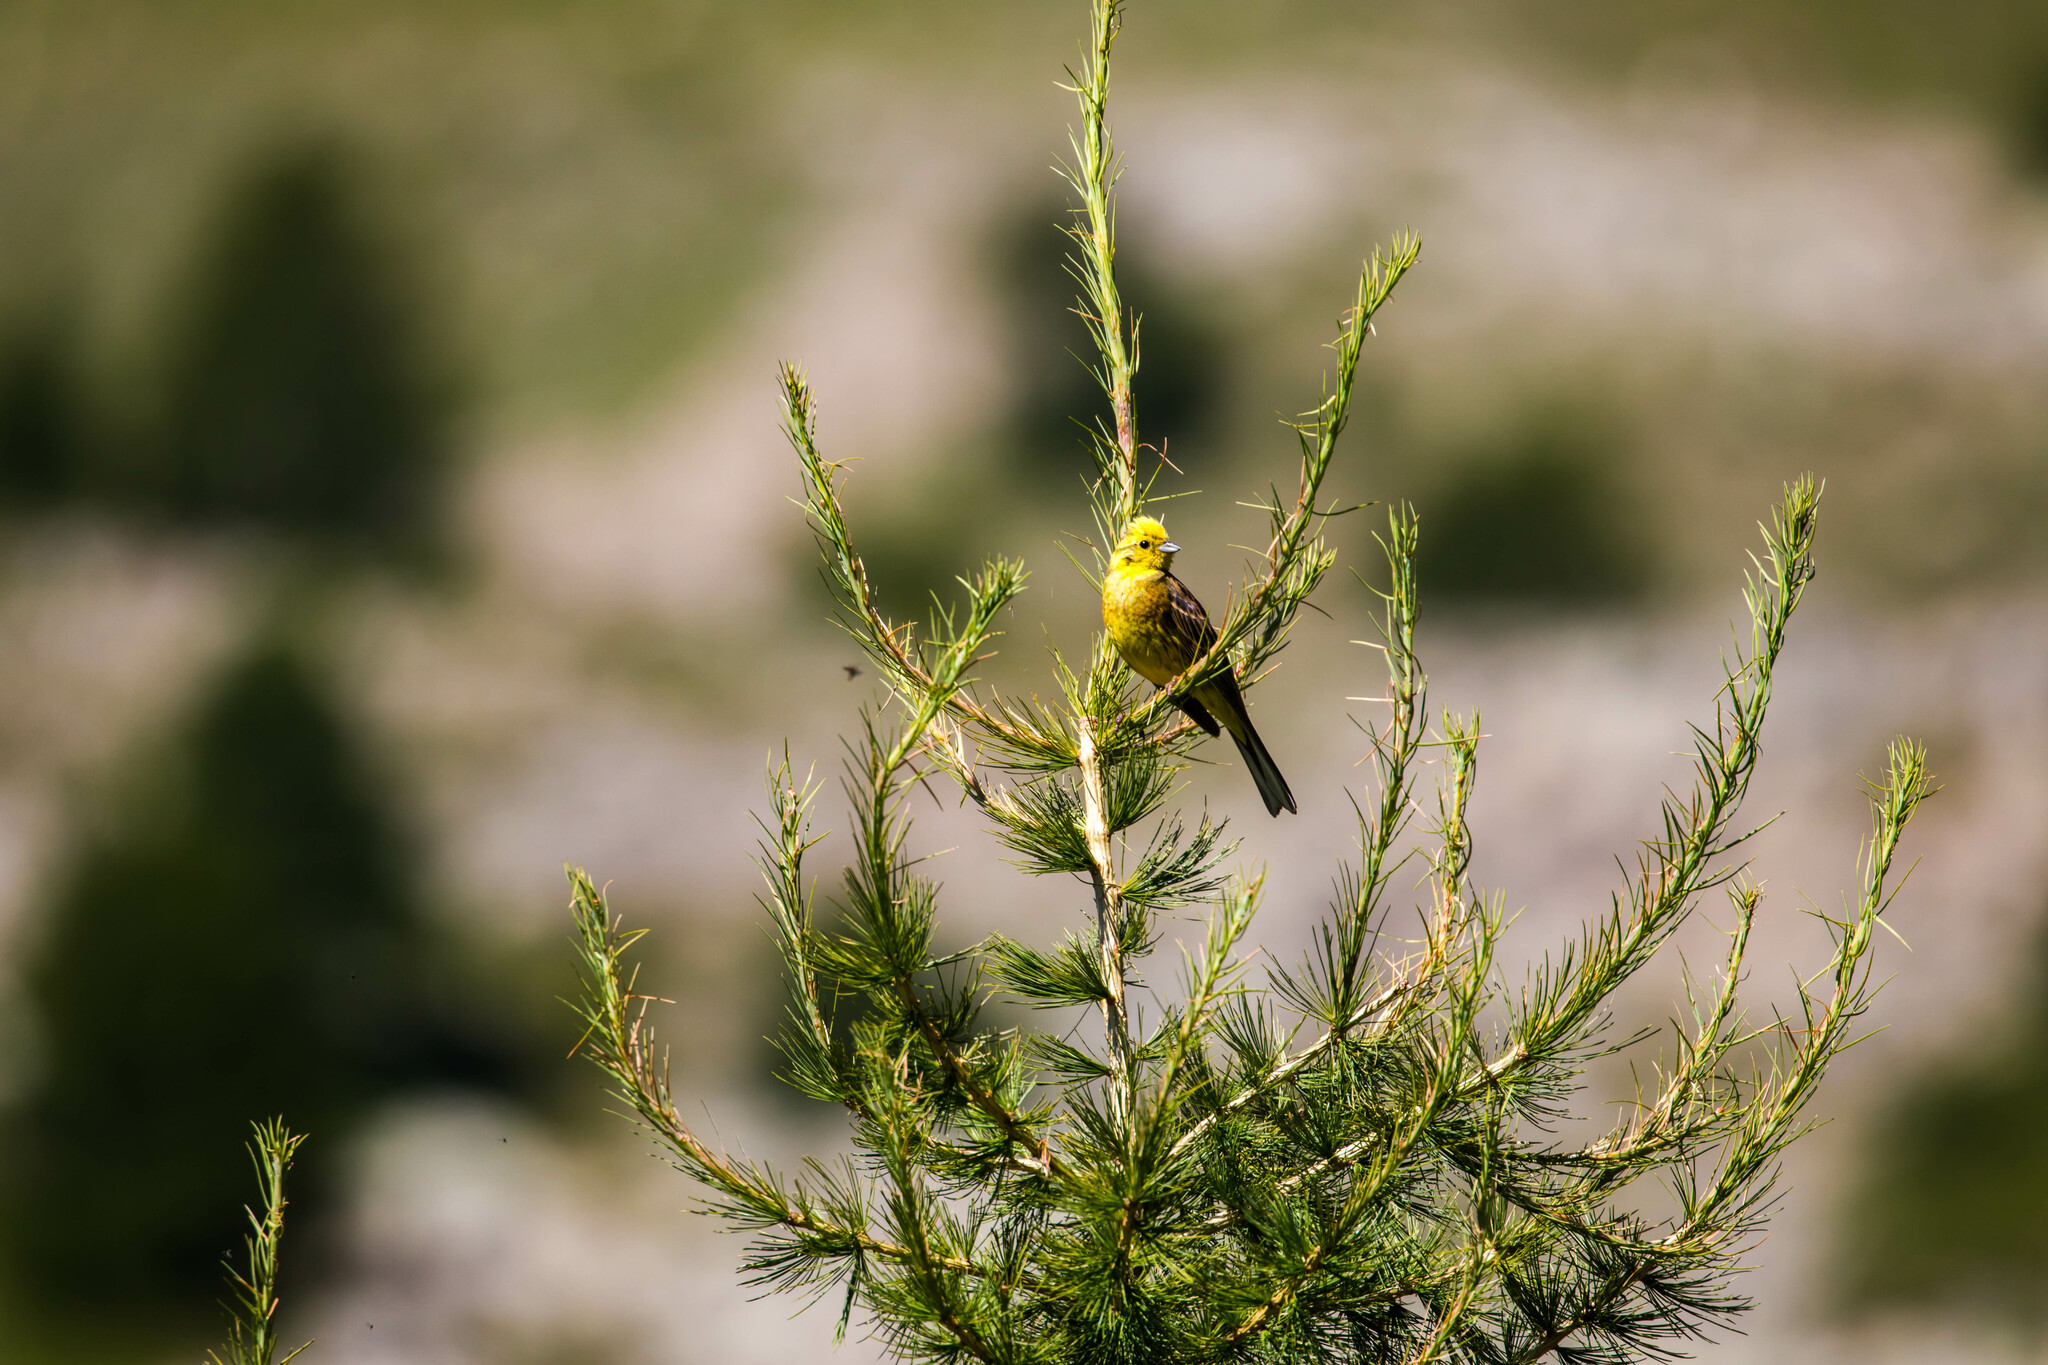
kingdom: Animalia
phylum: Chordata
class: Aves
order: Passeriformes
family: Emberizidae
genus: Emberiza
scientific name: Emberiza citrinella
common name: Yellowhammer
